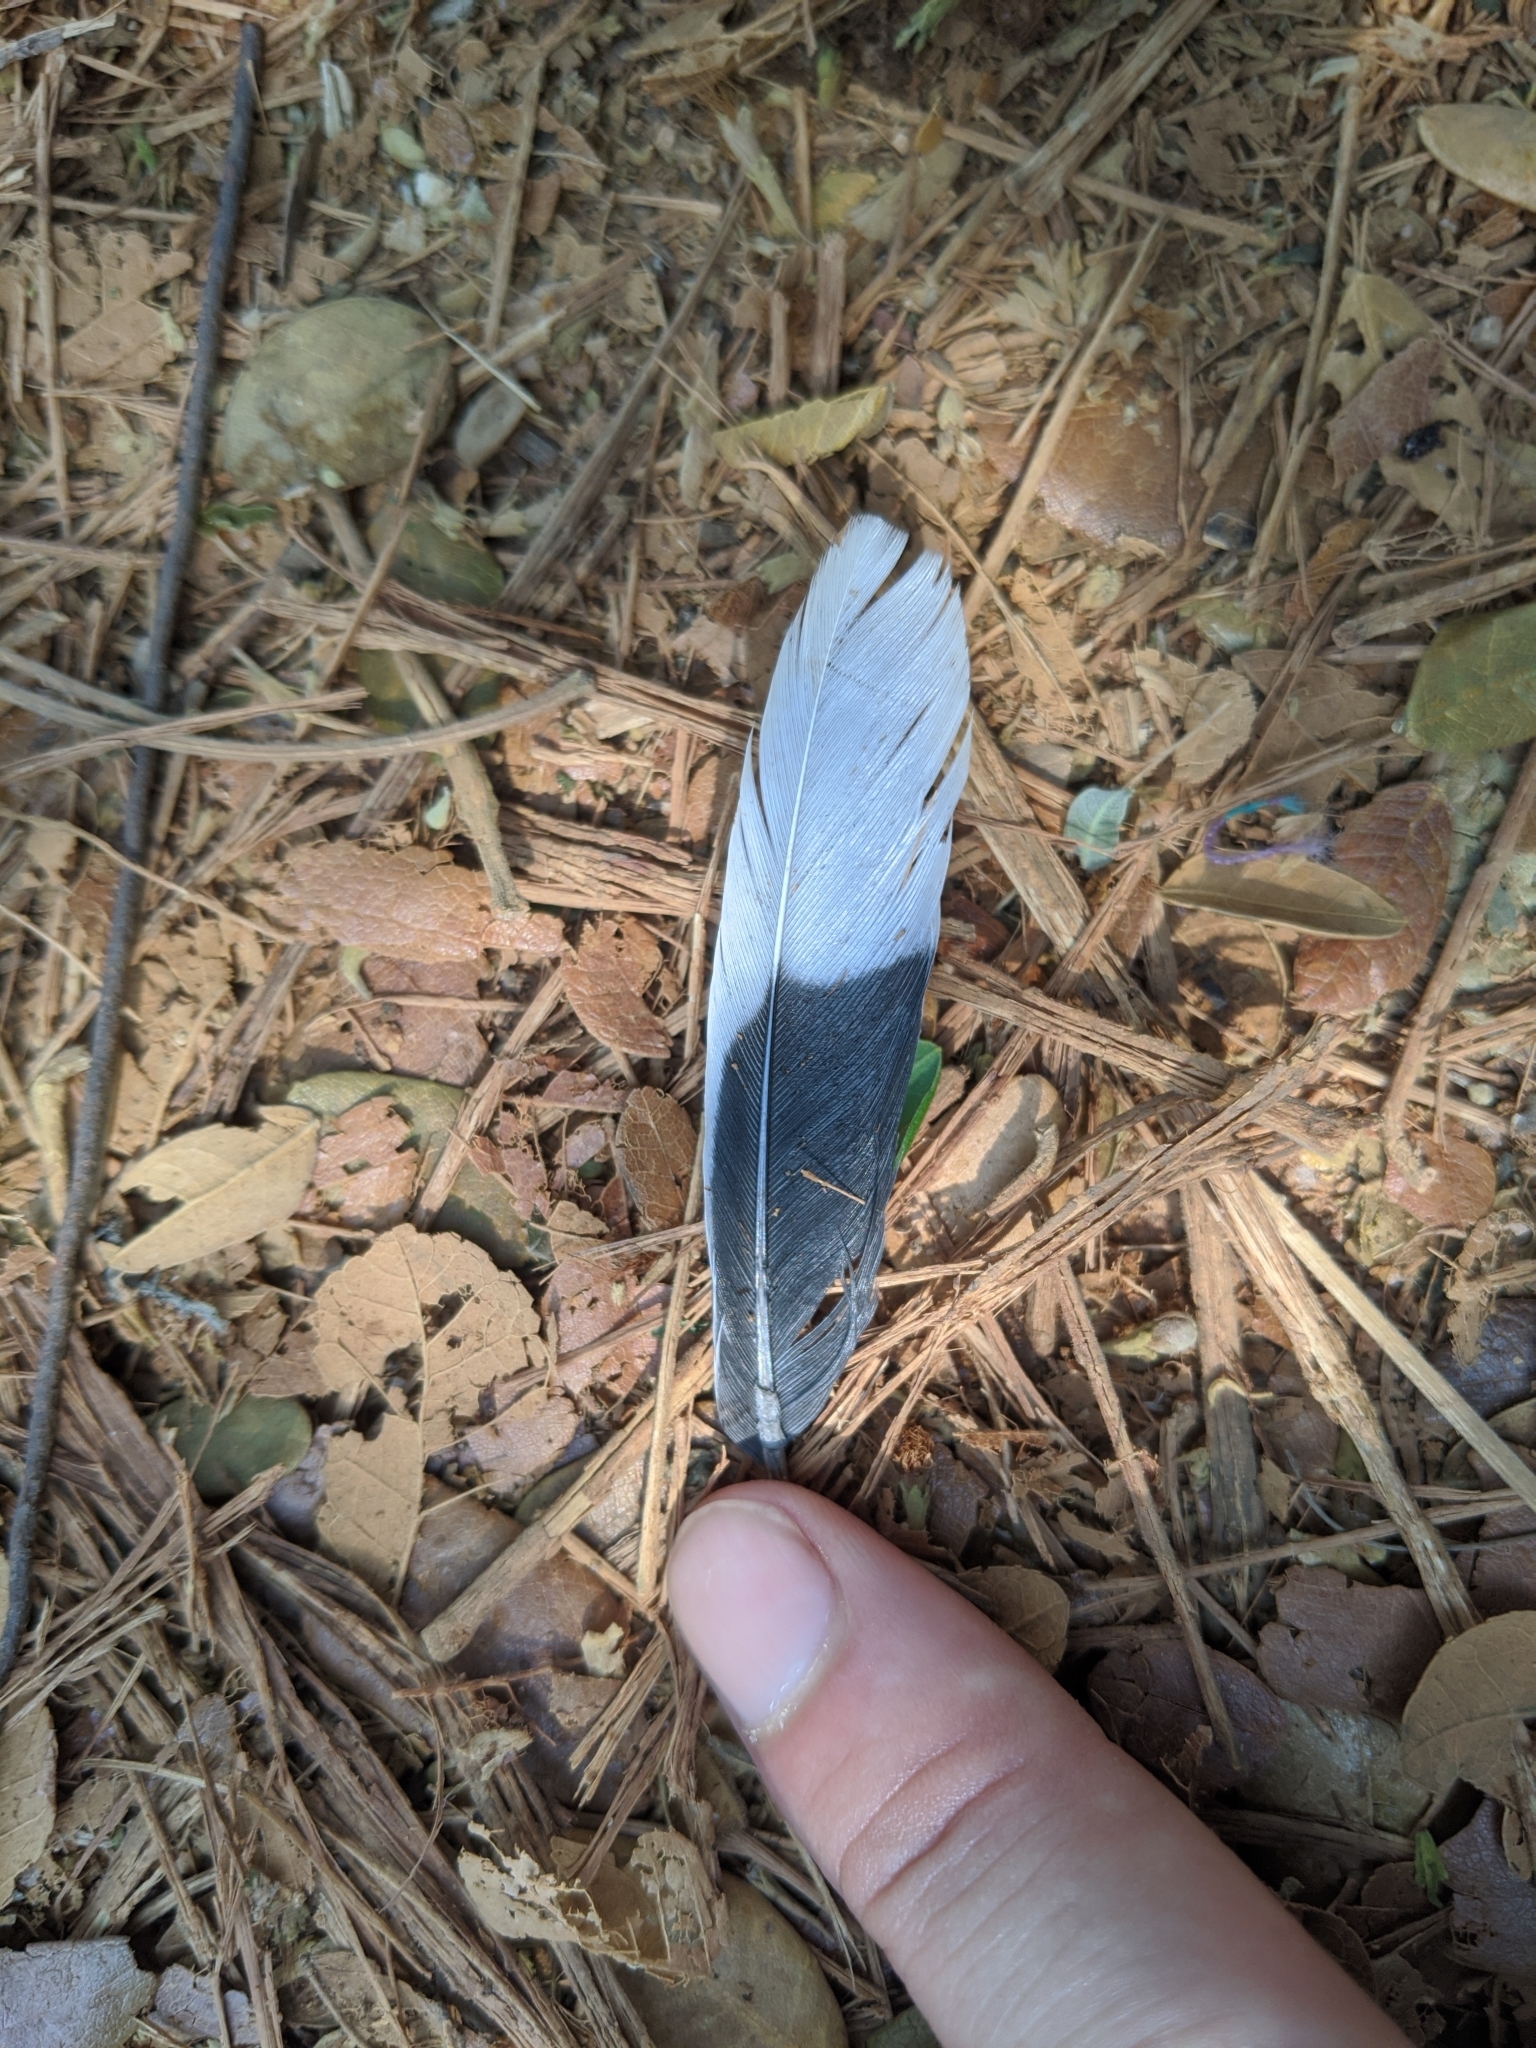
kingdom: Animalia
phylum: Chordata
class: Aves
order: Columbiformes
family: Columbidae
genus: Spilopelia
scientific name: Spilopelia senegalensis
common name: Laughing dove
